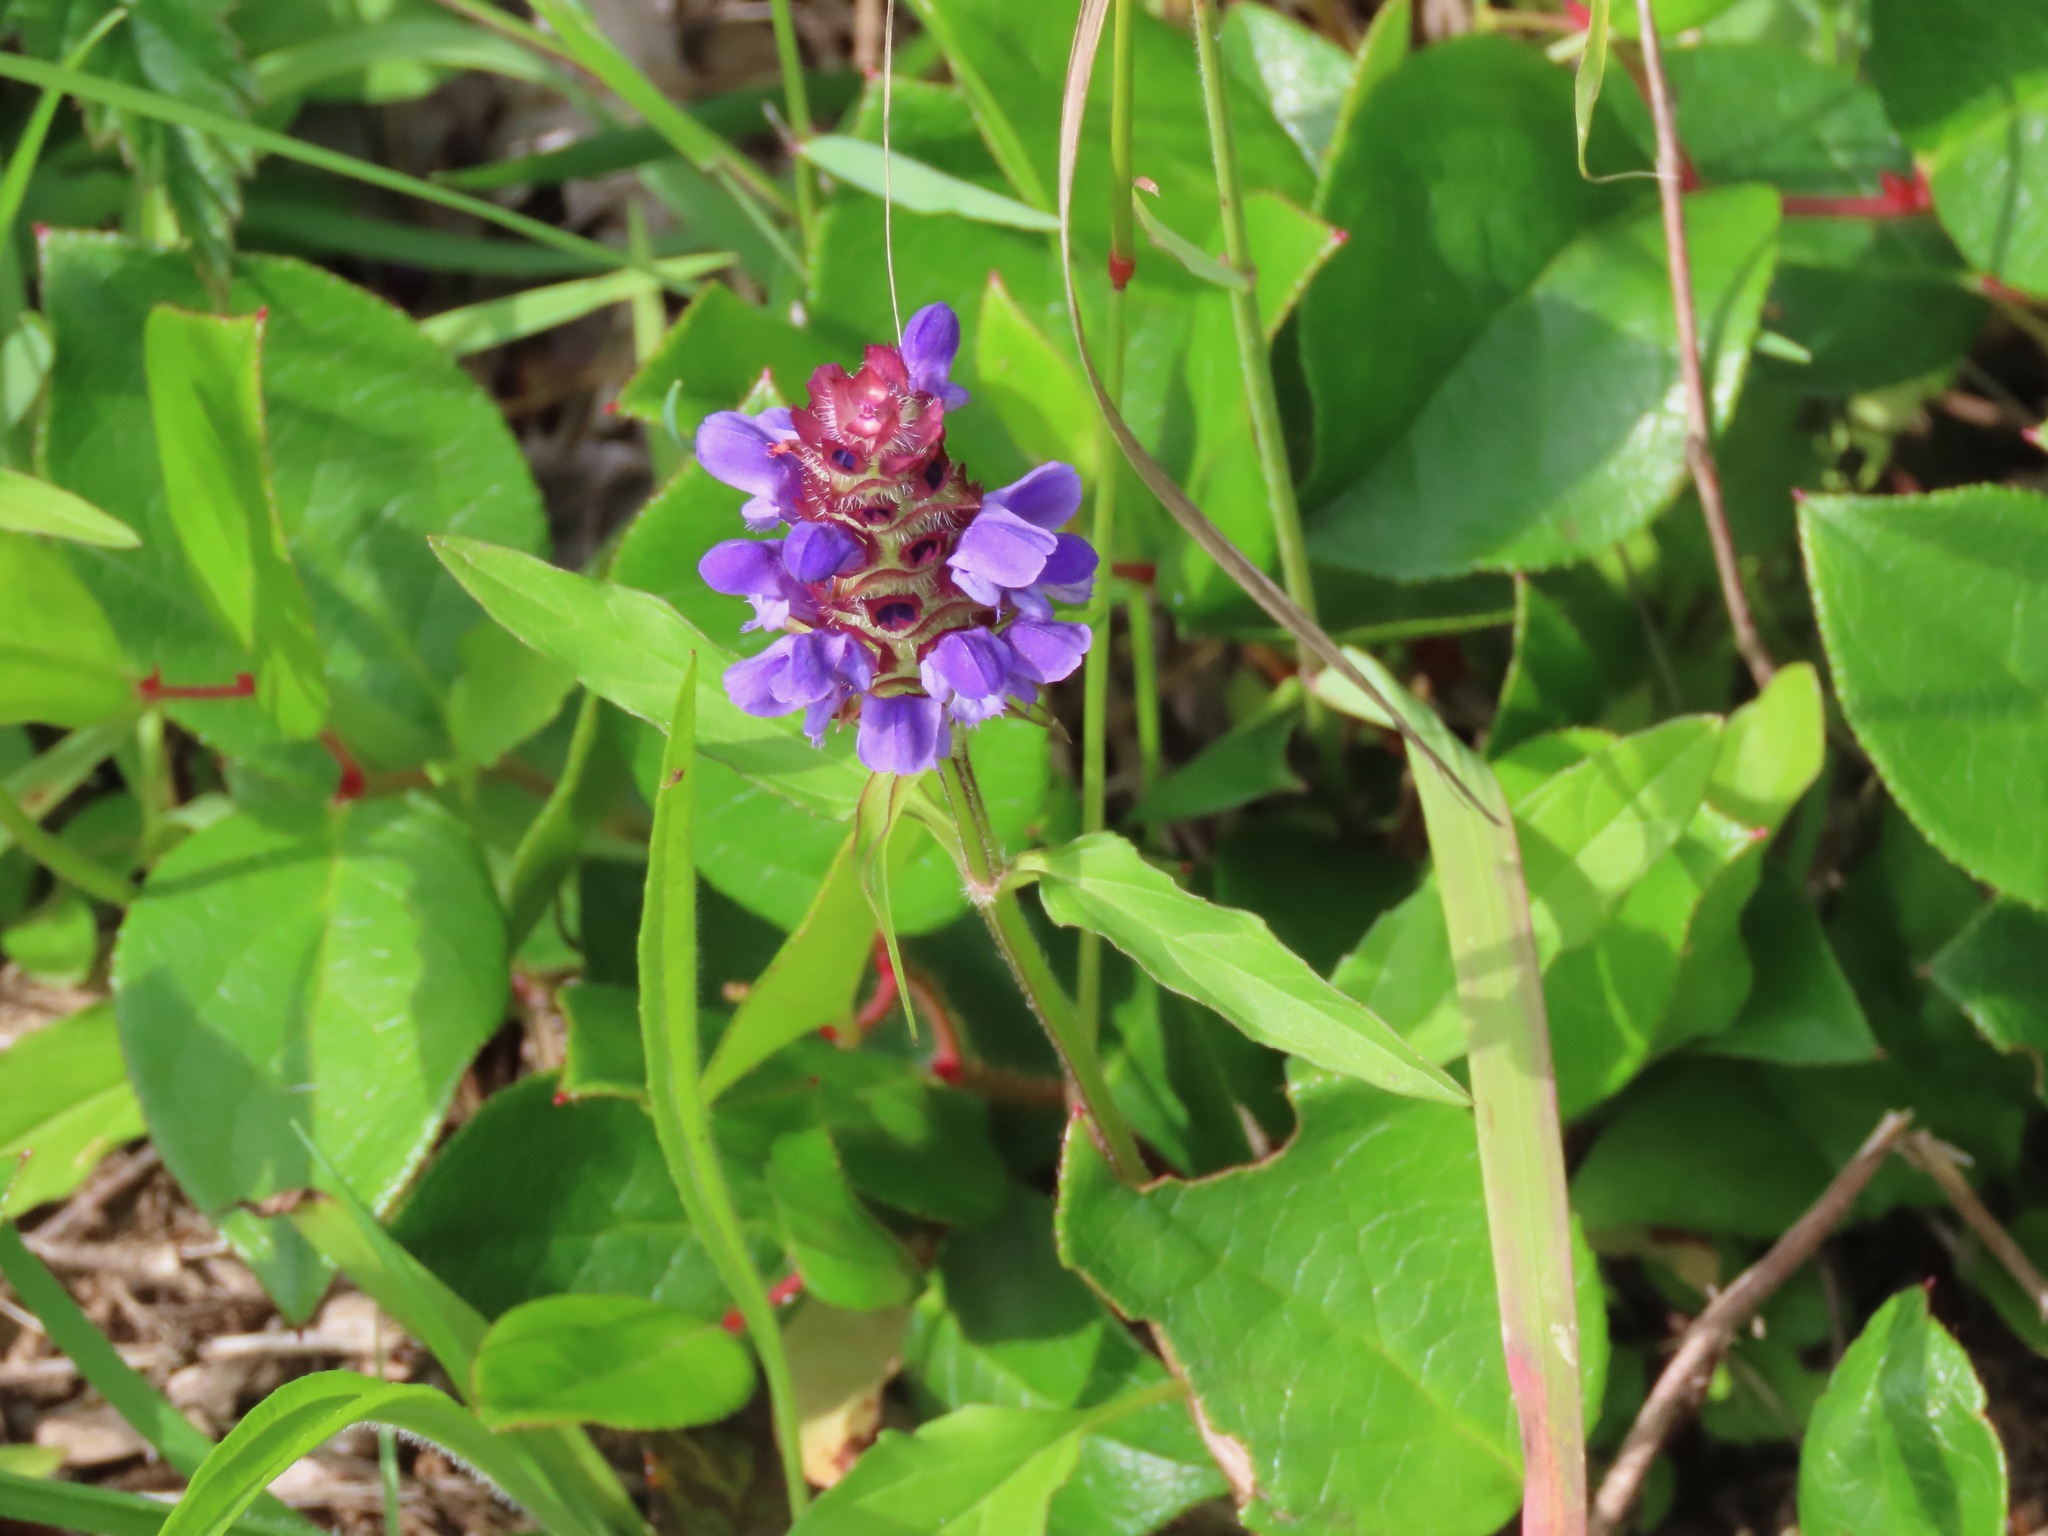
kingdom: Plantae
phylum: Tracheophyta
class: Magnoliopsida
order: Lamiales
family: Lamiaceae
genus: Prunella
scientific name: Prunella vulgaris
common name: Heal-all
